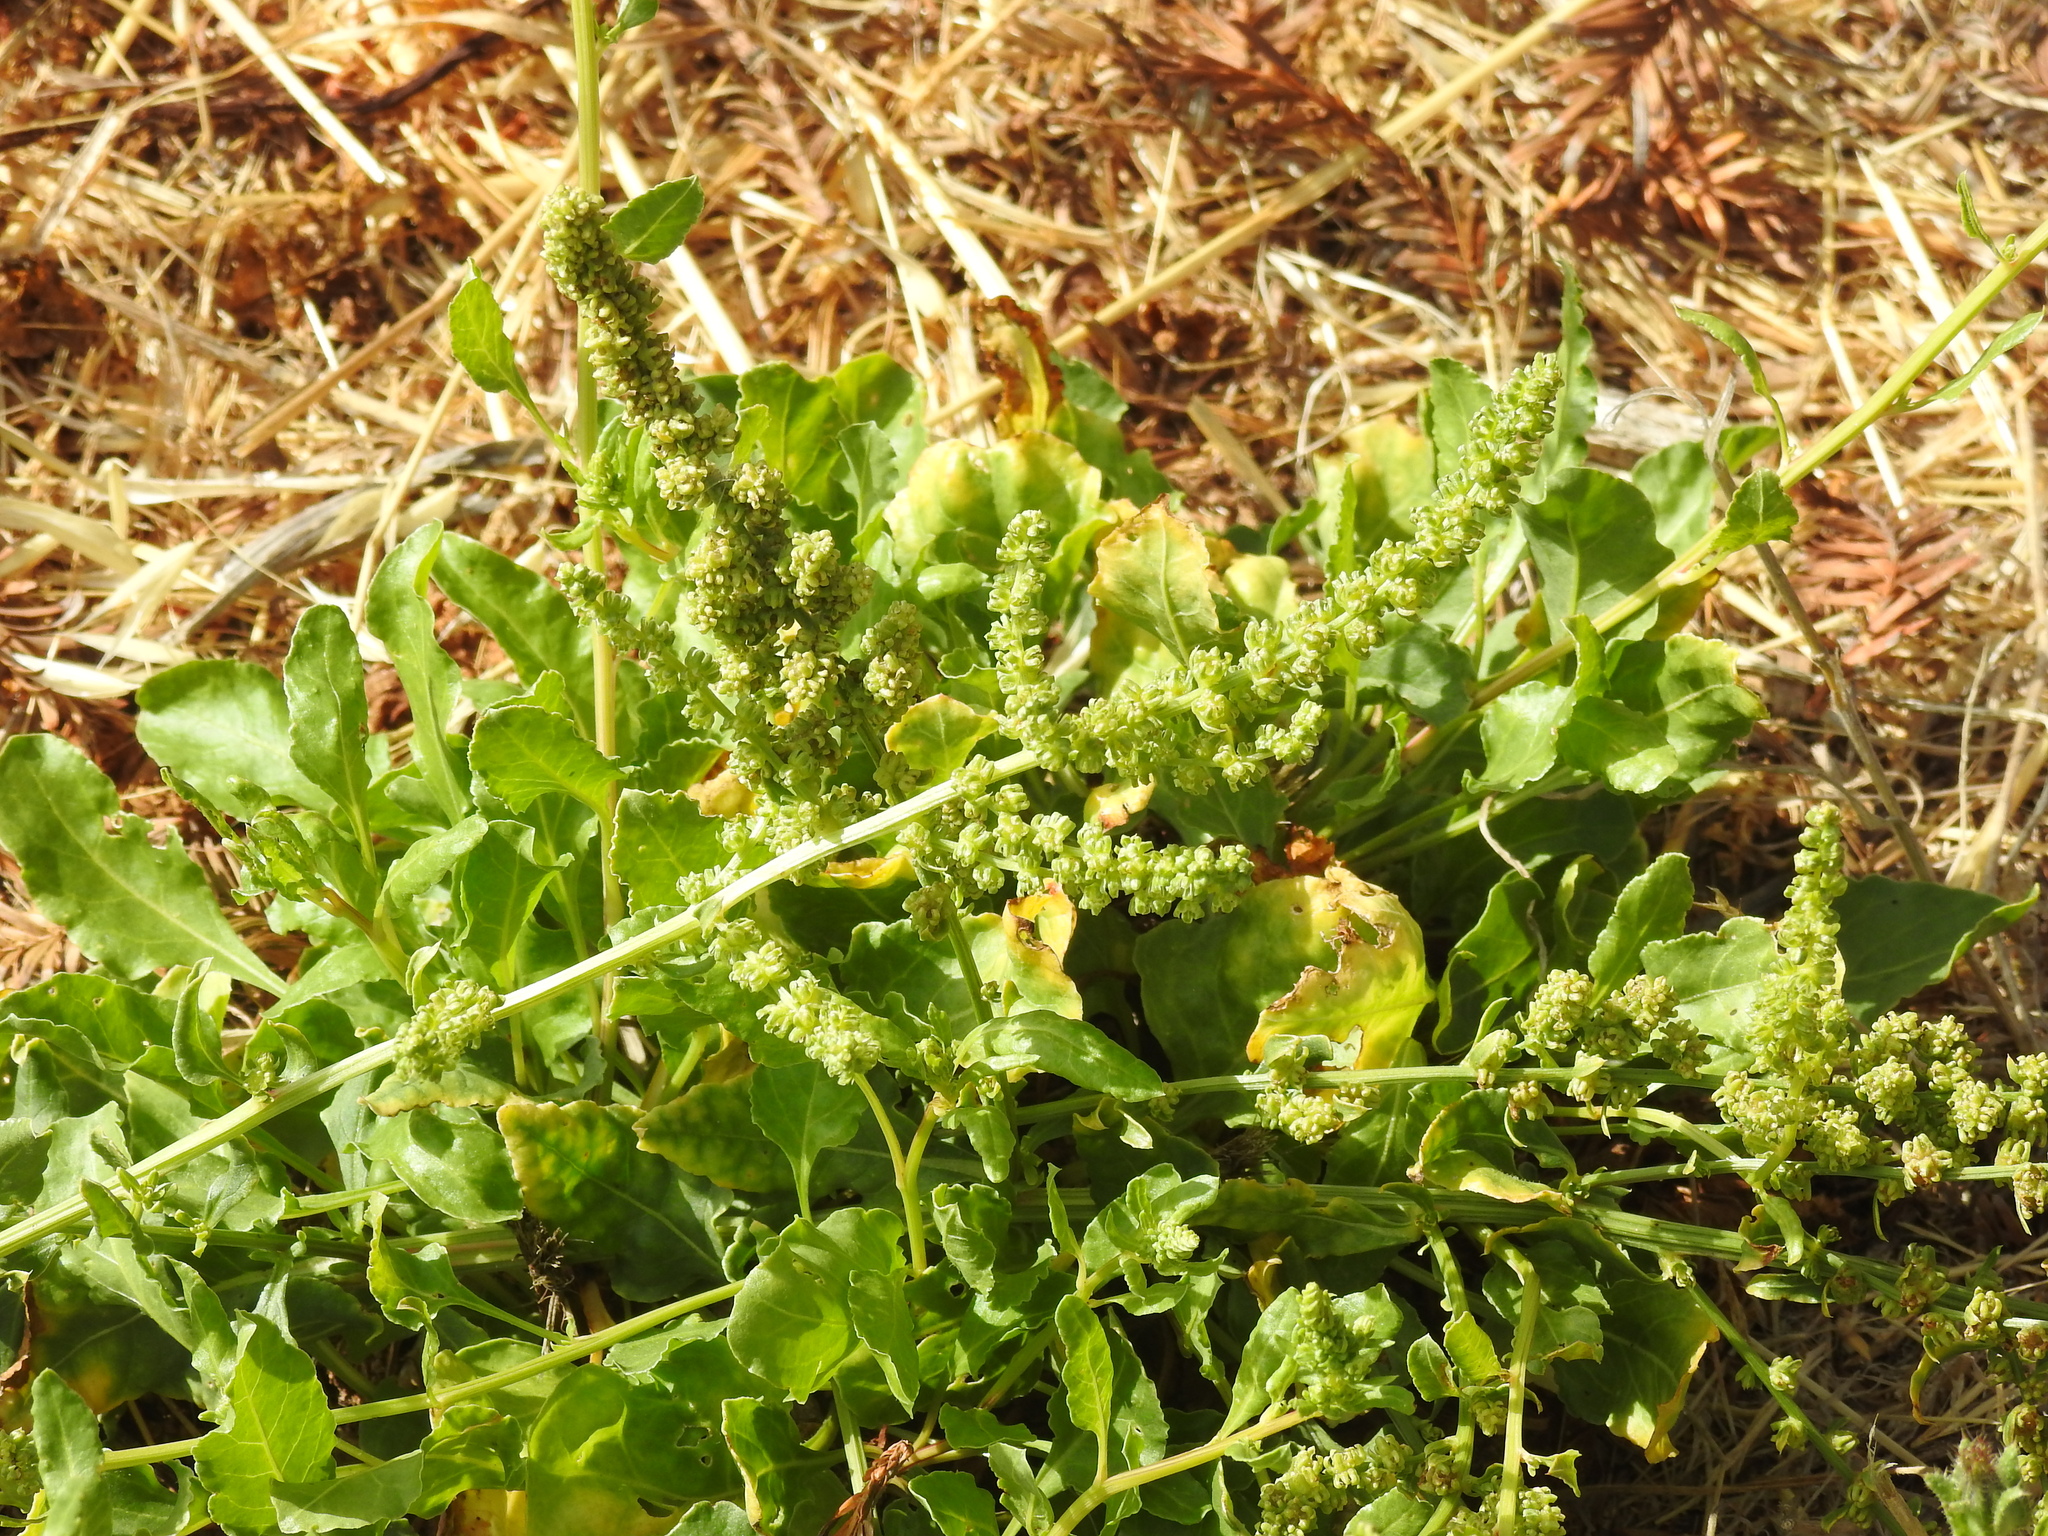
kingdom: Plantae
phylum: Tracheophyta
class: Magnoliopsida
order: Caryophyllales
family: Amaranthaceae
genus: Beta
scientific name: Beta vulgaris
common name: Beet
